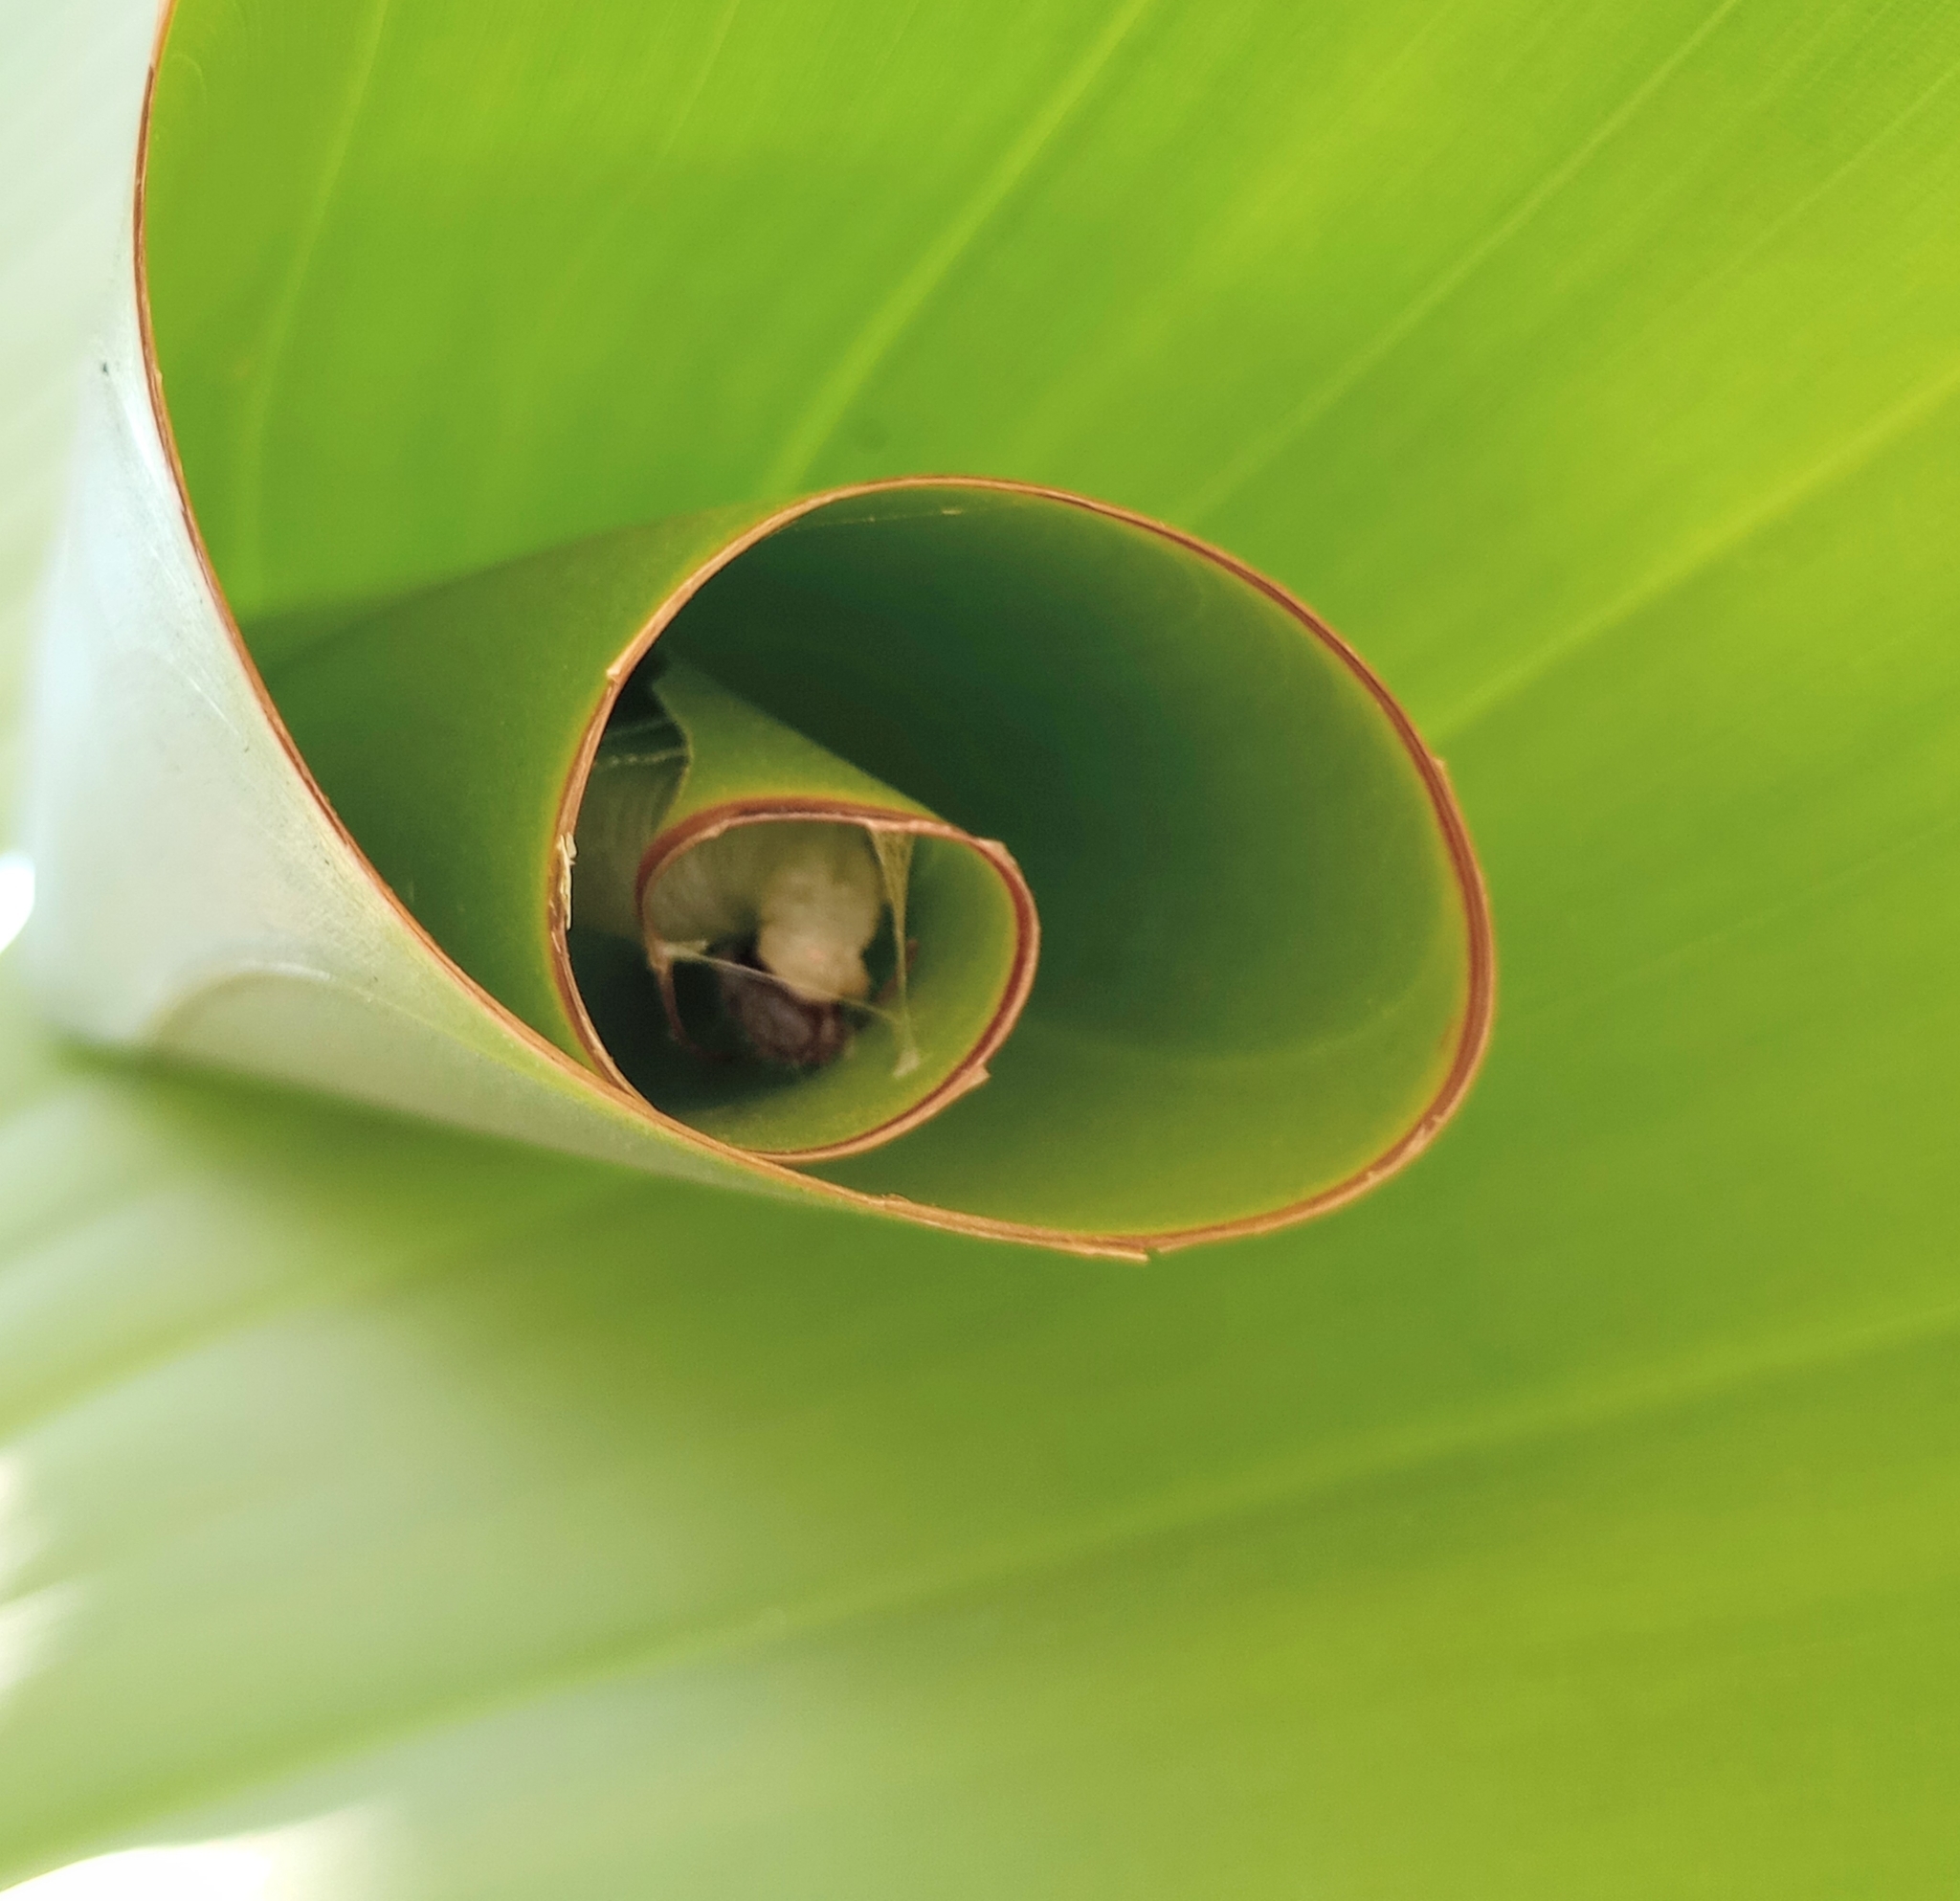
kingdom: Animalia
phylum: Arthropoda
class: Insecta
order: Lepidoptera
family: Hesperiidae
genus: Erionota
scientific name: Erionota torus
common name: Rounded palm-redeye
